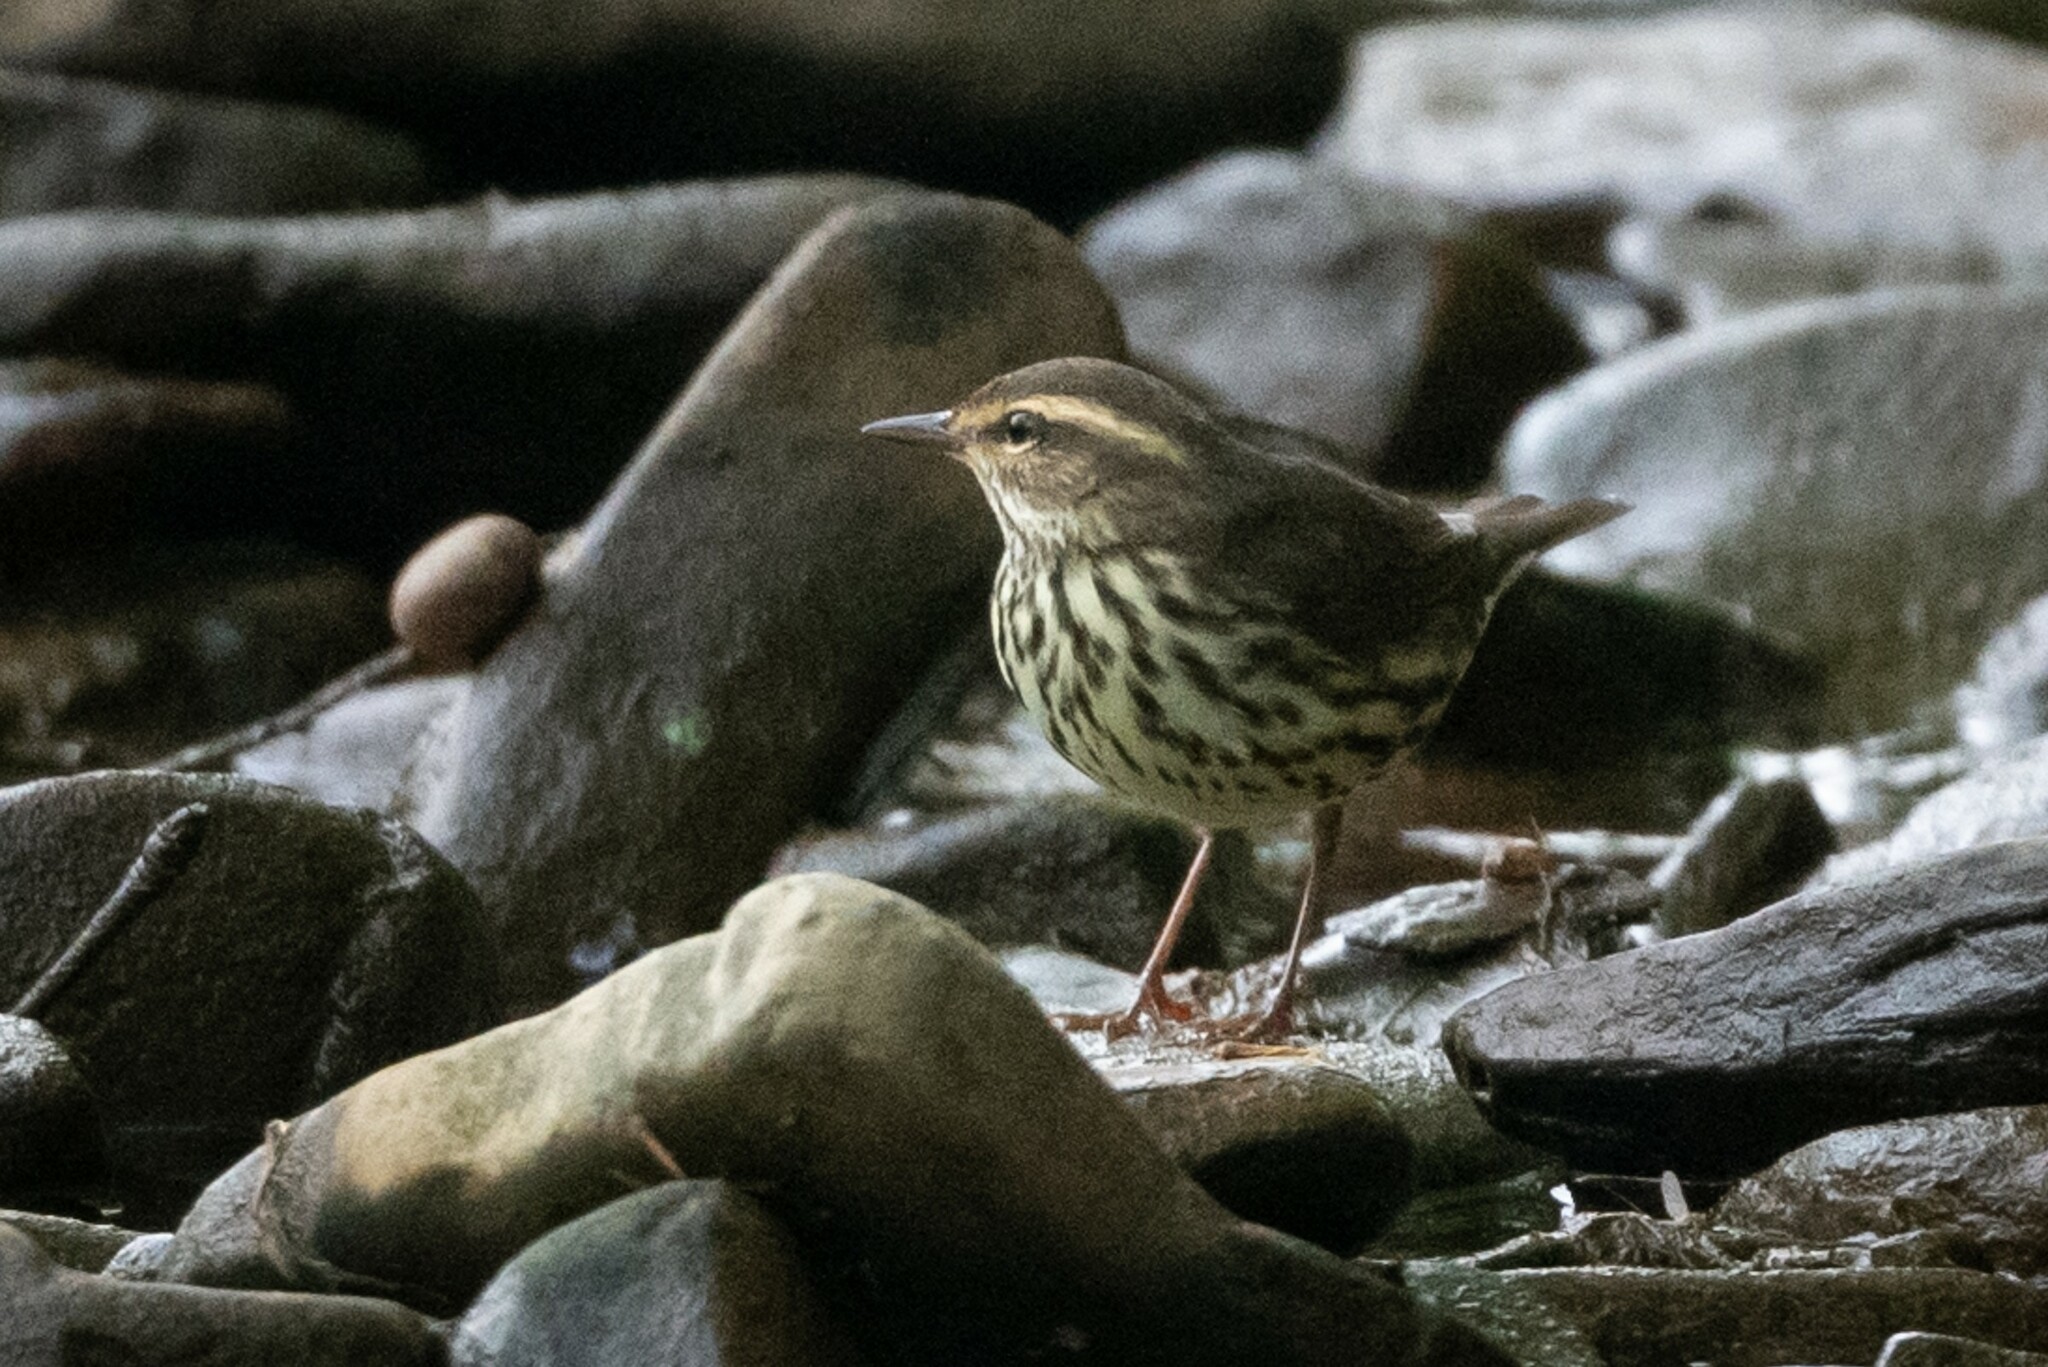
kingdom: Animalia
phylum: Chordata
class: Aves
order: Passeriformes
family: Parulidae
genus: Parkesia
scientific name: Parkesia noveboracensis
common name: Northern waterthrush
